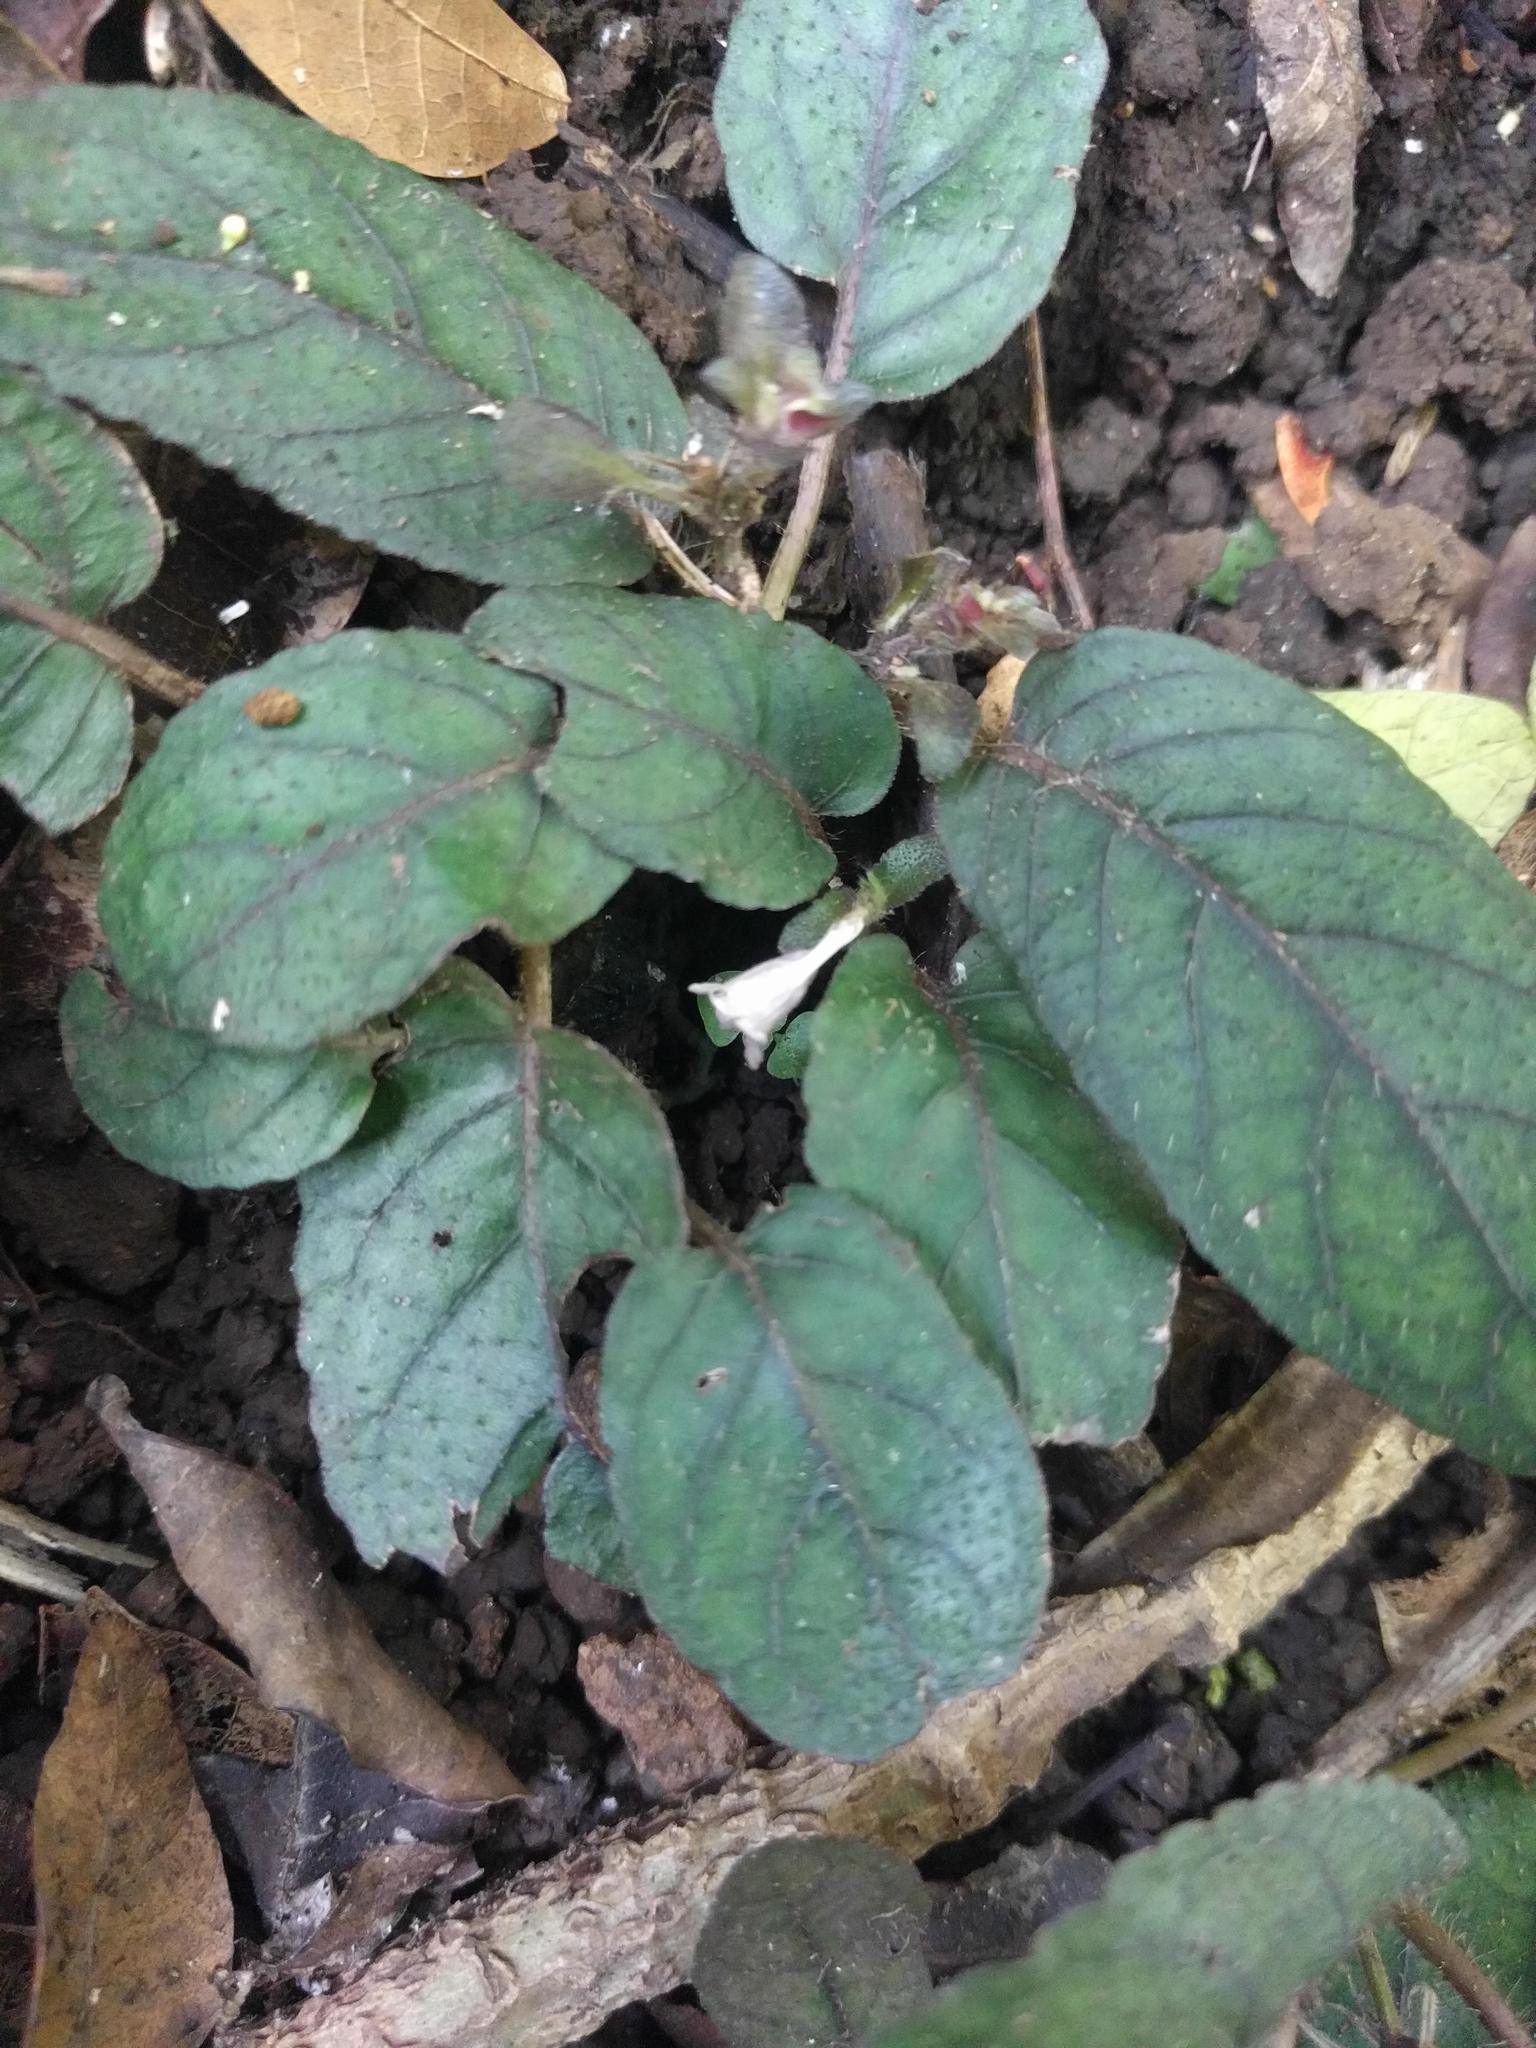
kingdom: Plantae
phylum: Tracheophyta
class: Magnoliopsida
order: Lamiales
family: Acanthaceae
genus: Strobilanthes
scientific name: Strobilanthes reptans
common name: Acanthaceae
